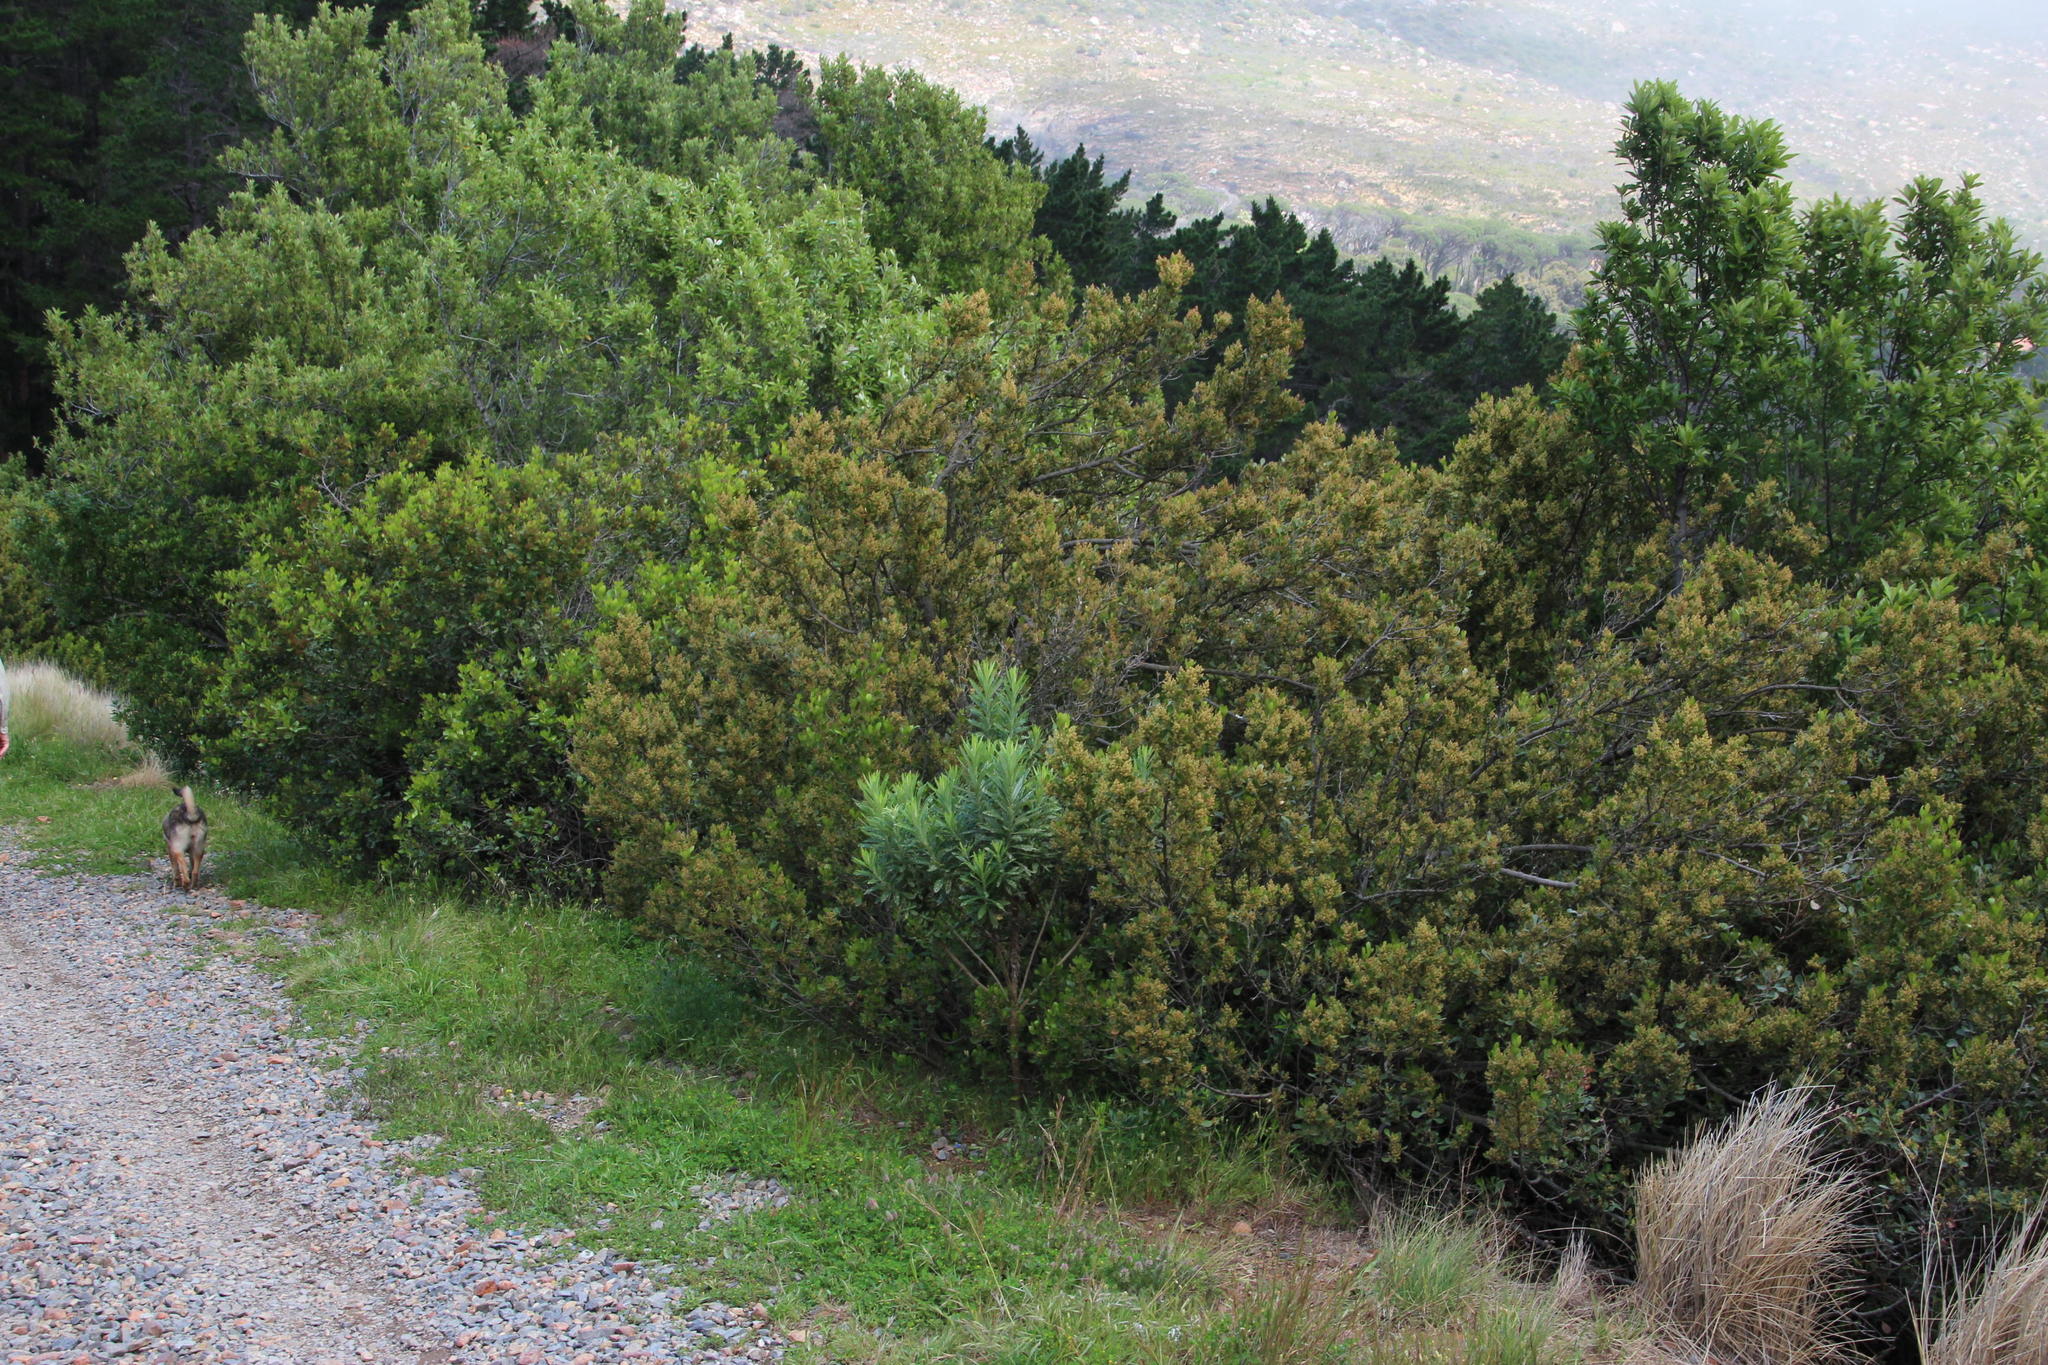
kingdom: Plantae
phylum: Tracheophyta
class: Magnoliopsida
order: Sapindales
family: Anacardiaceae
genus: Searsia
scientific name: Searsia lucida
